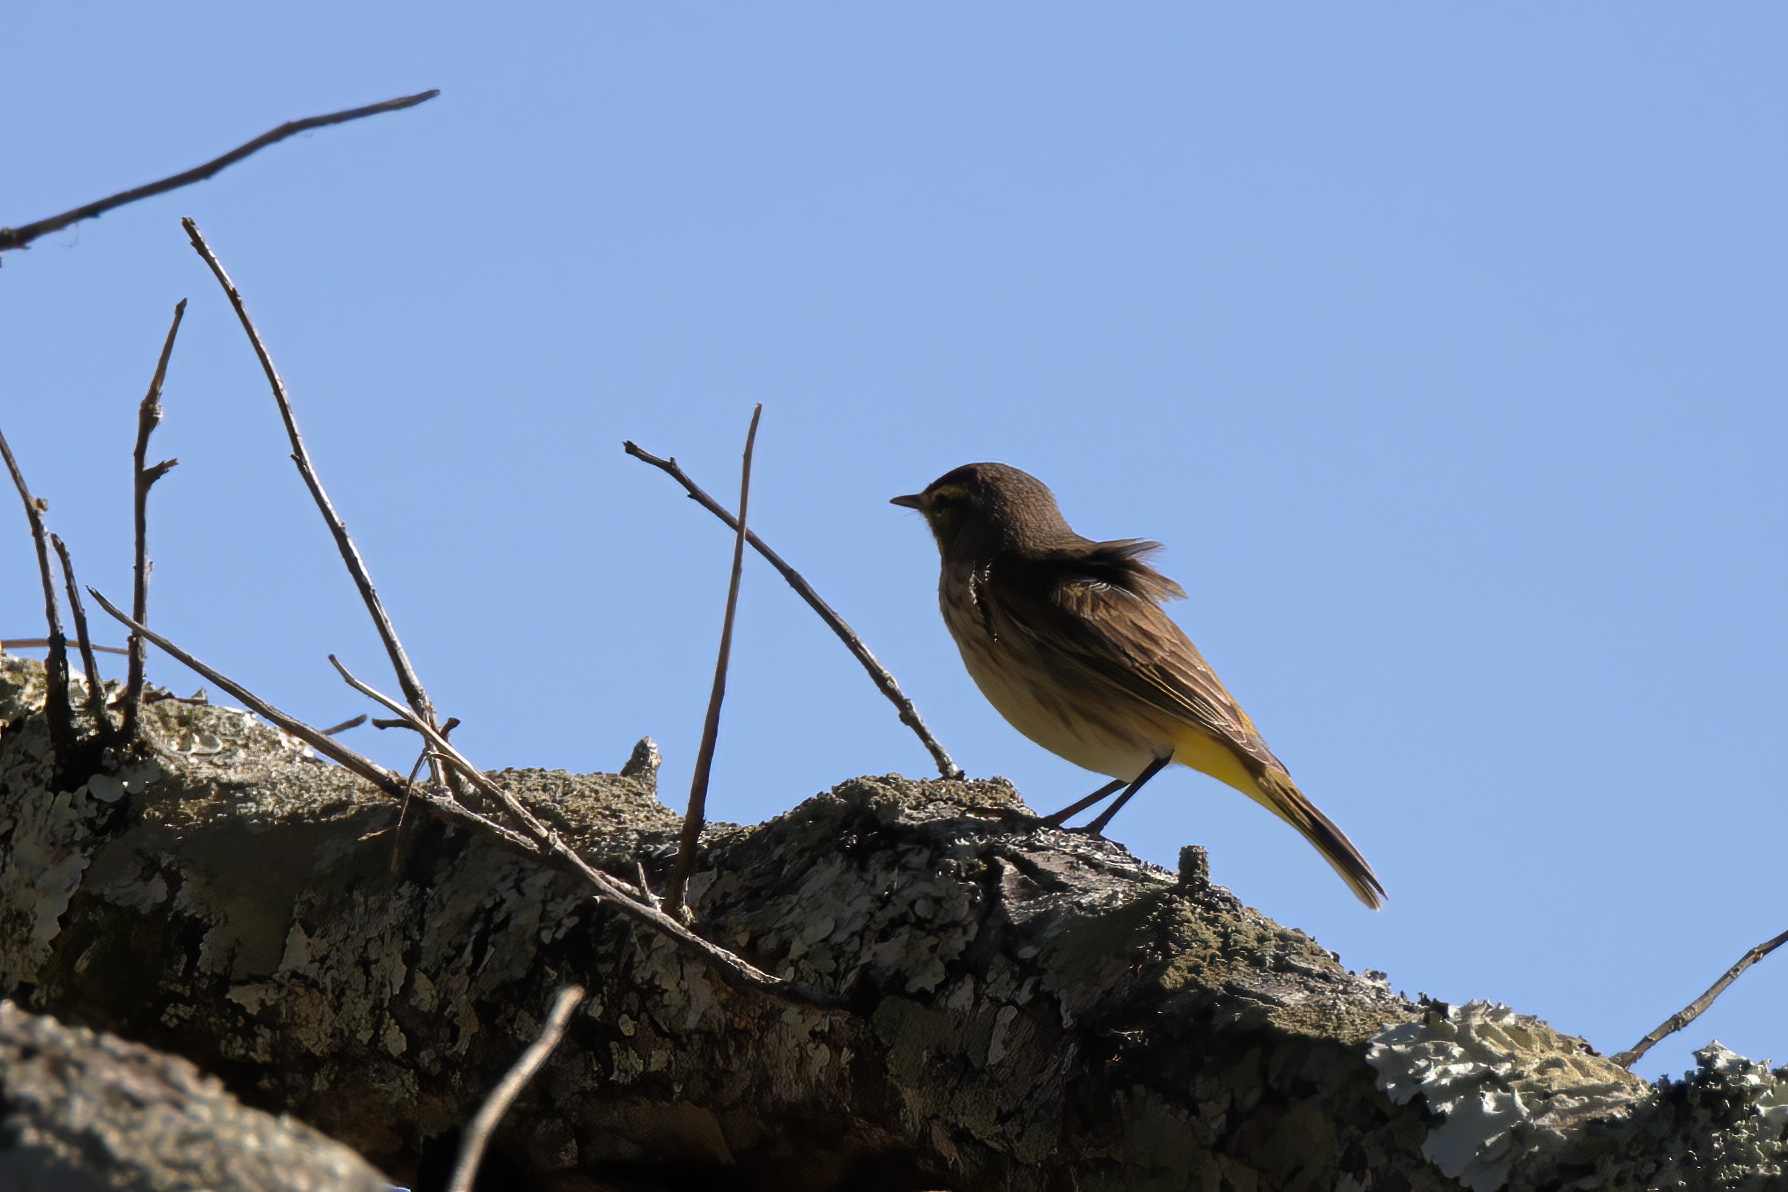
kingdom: Animalia
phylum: Chordata
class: Aves
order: Passeriformes
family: Parulidae
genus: Setophaga
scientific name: Setophaga palmarum
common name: Palm warbler
